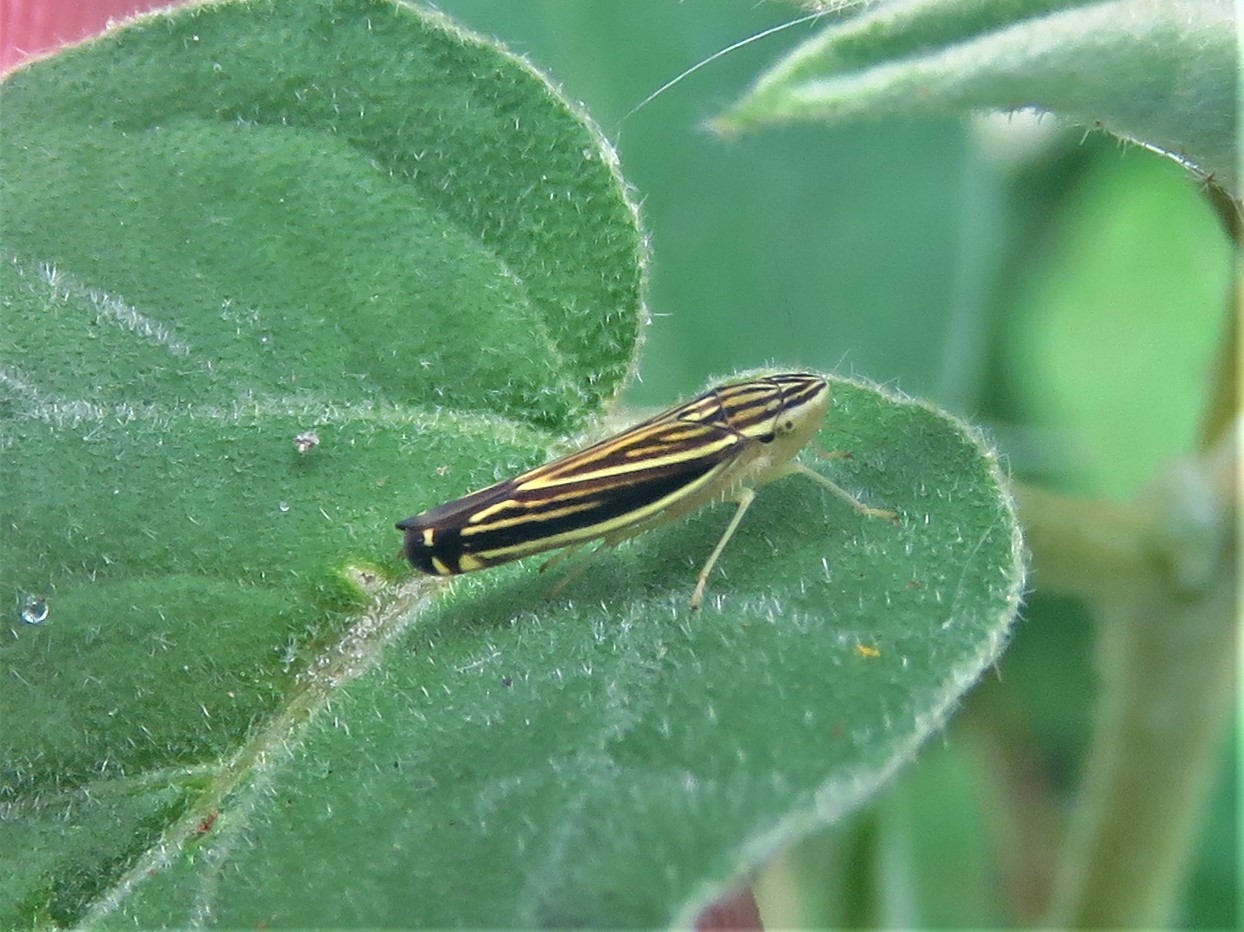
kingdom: Animalia
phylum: Arthropoda
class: Insecta
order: Hemiptera
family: Cicadellidae
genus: Sibovia
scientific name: Sibovia occatoria
